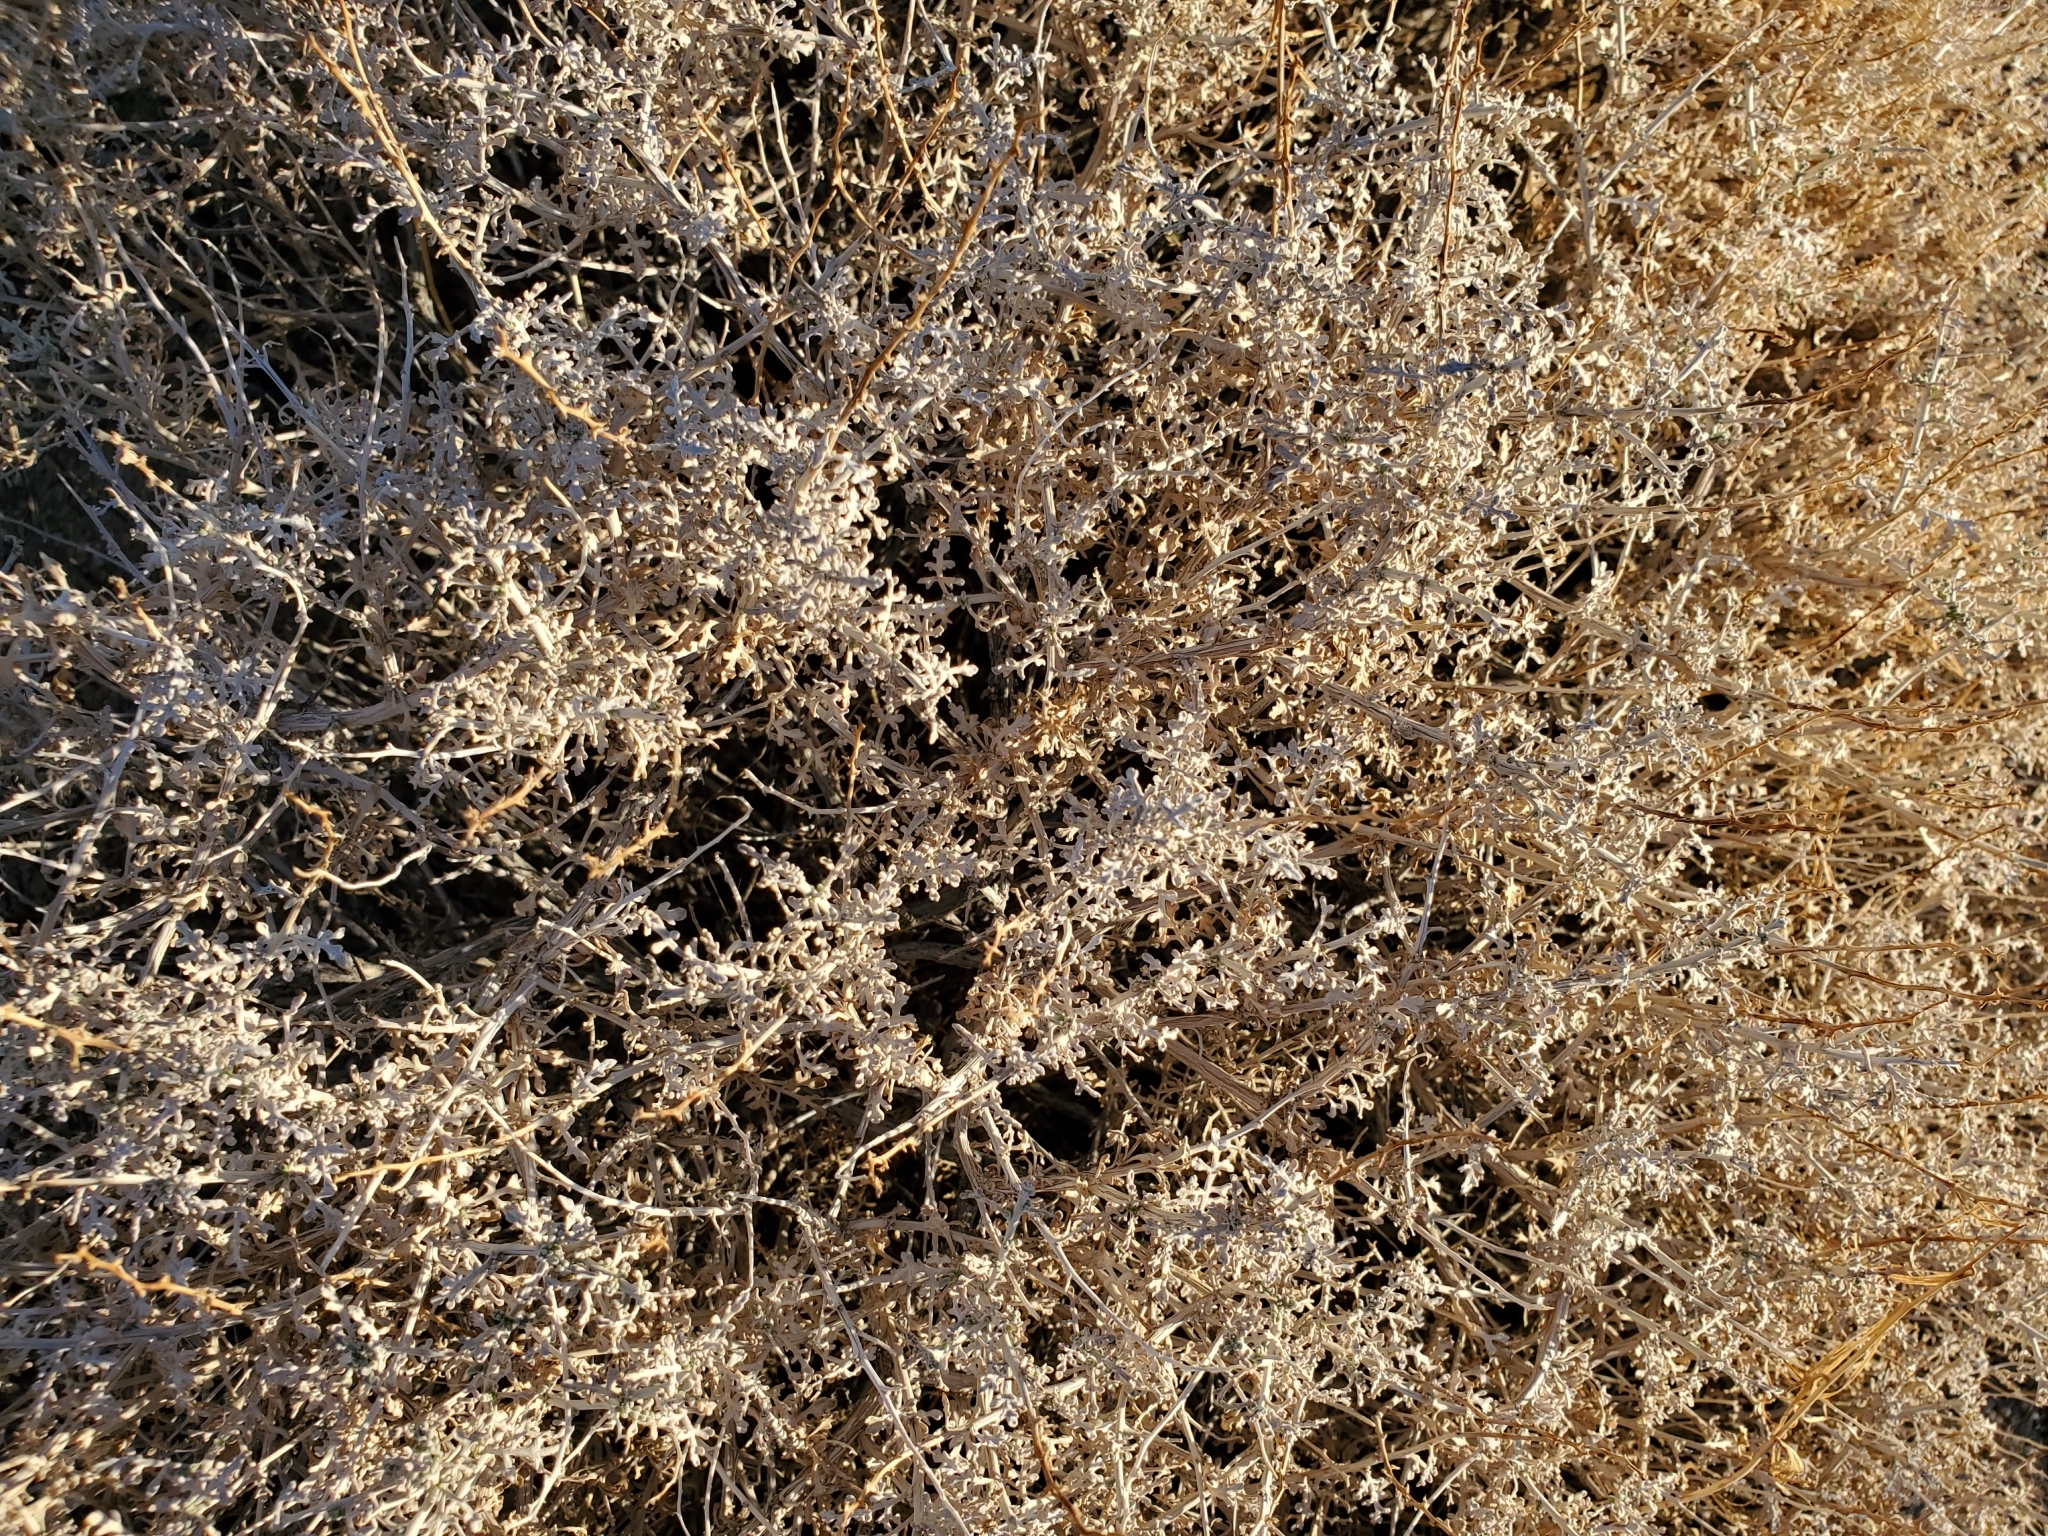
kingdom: Plantae
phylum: Tracheophyta
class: Magnoliopsida
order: Asterales
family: Asteraceae
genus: Ambrosia
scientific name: Ambrosia dumosa
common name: Bur-sage
